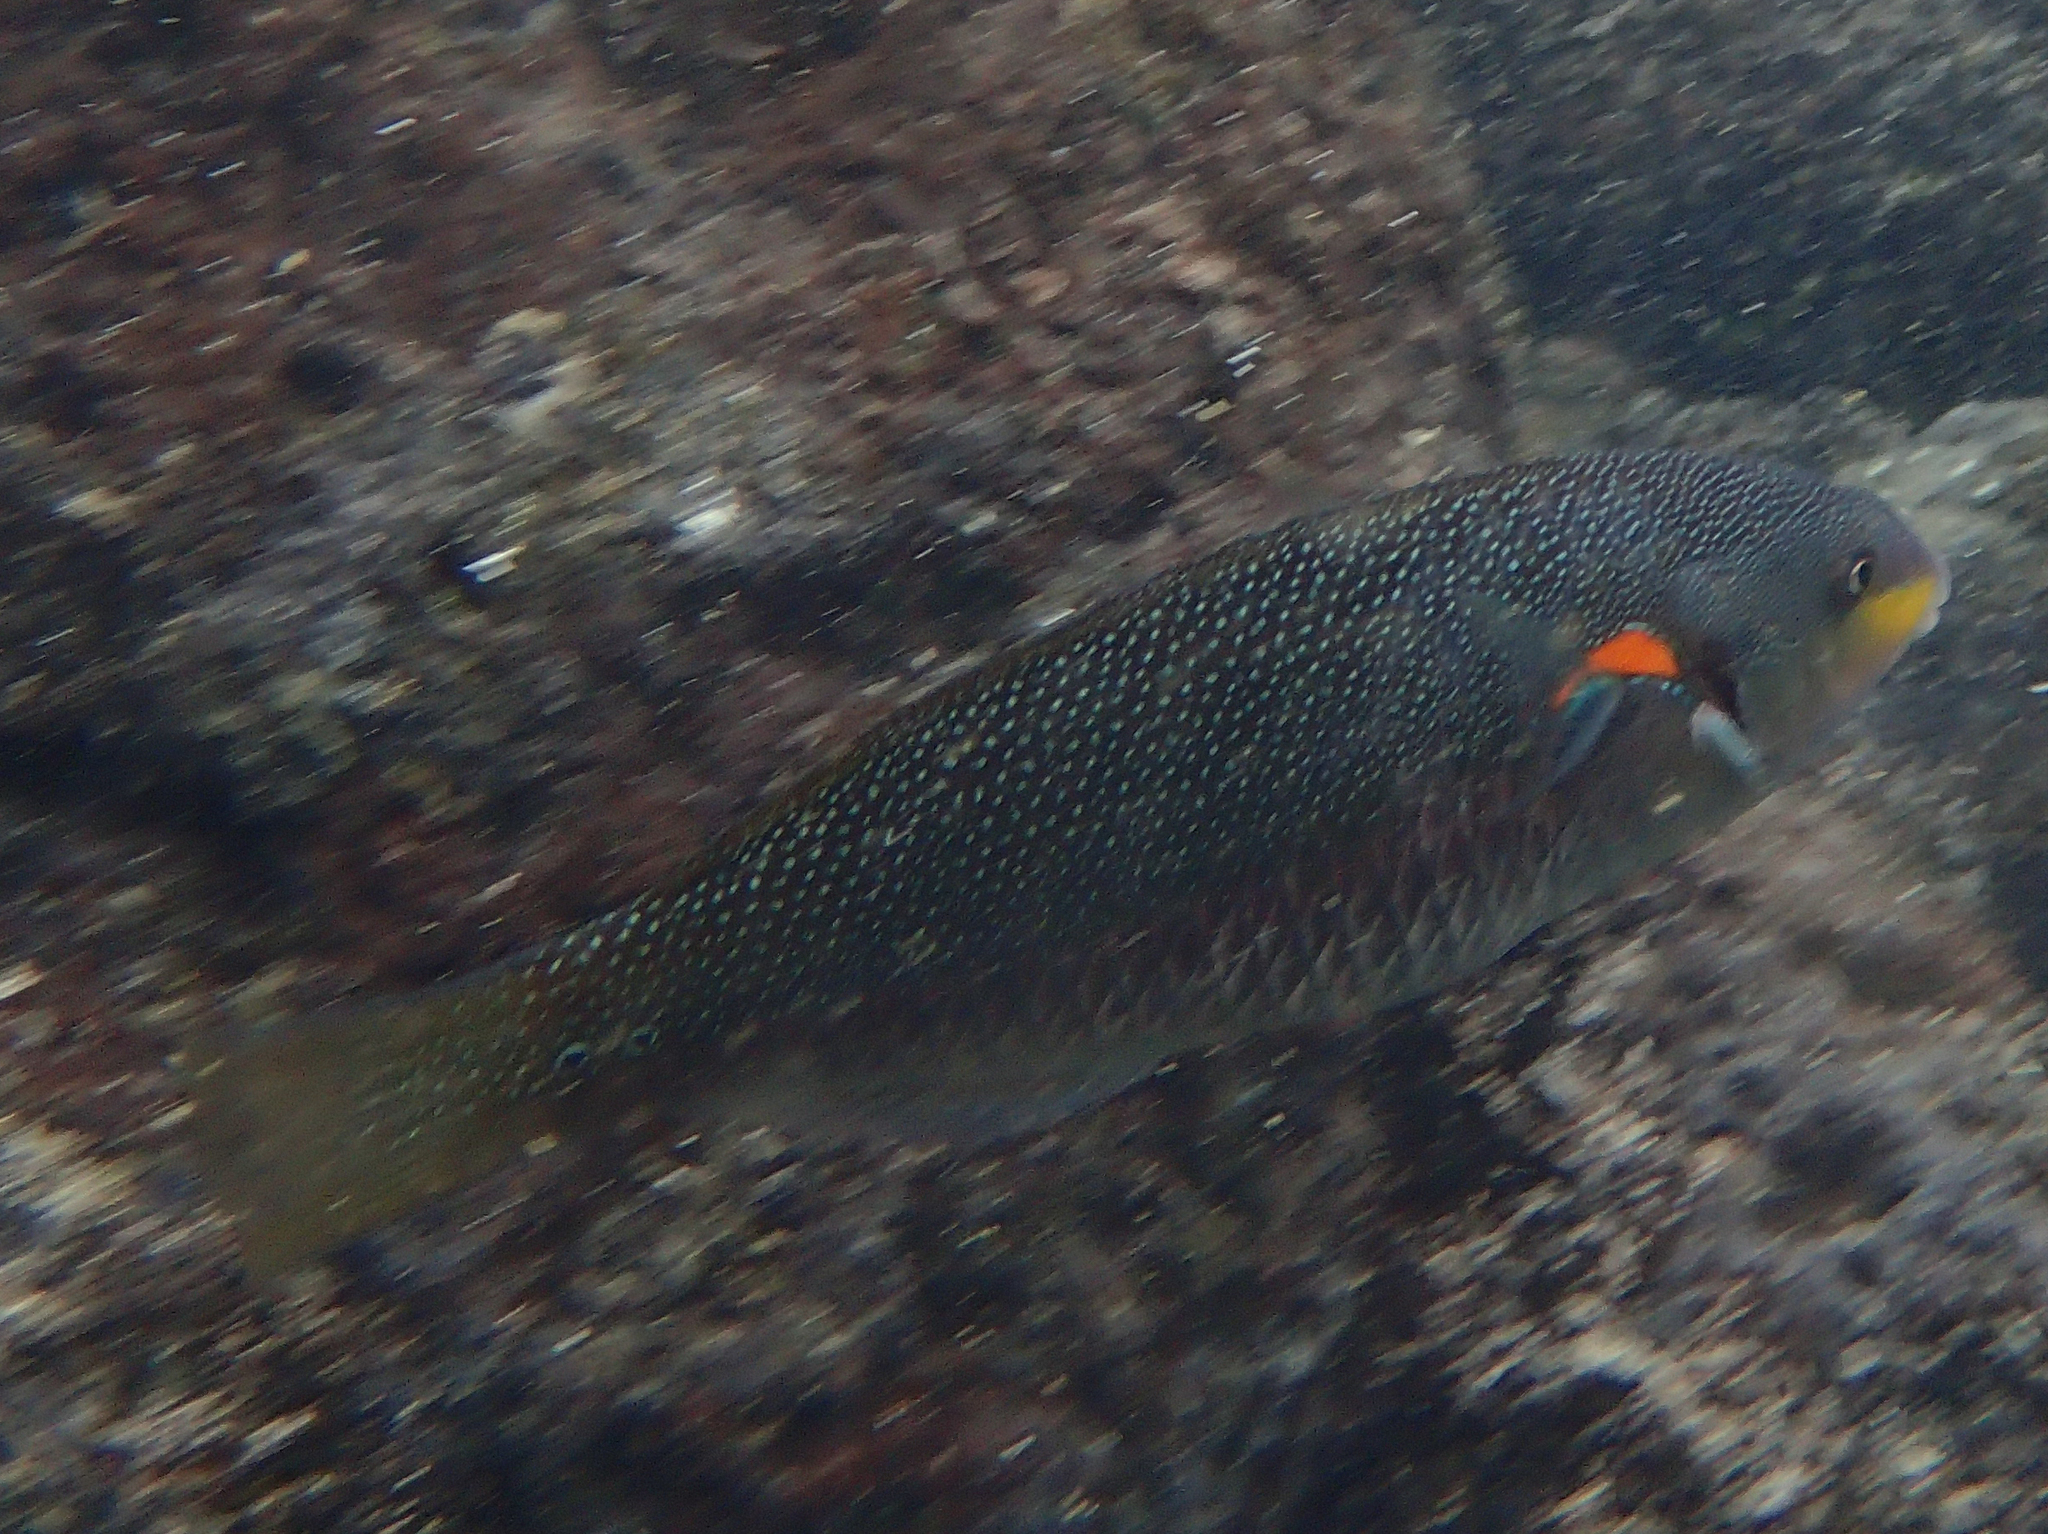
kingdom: Animalia
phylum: Chordata
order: Perciformes
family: Labridae
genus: Stethojulis
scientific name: Stethojulis bandanensis
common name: Red shoulder wrasse
